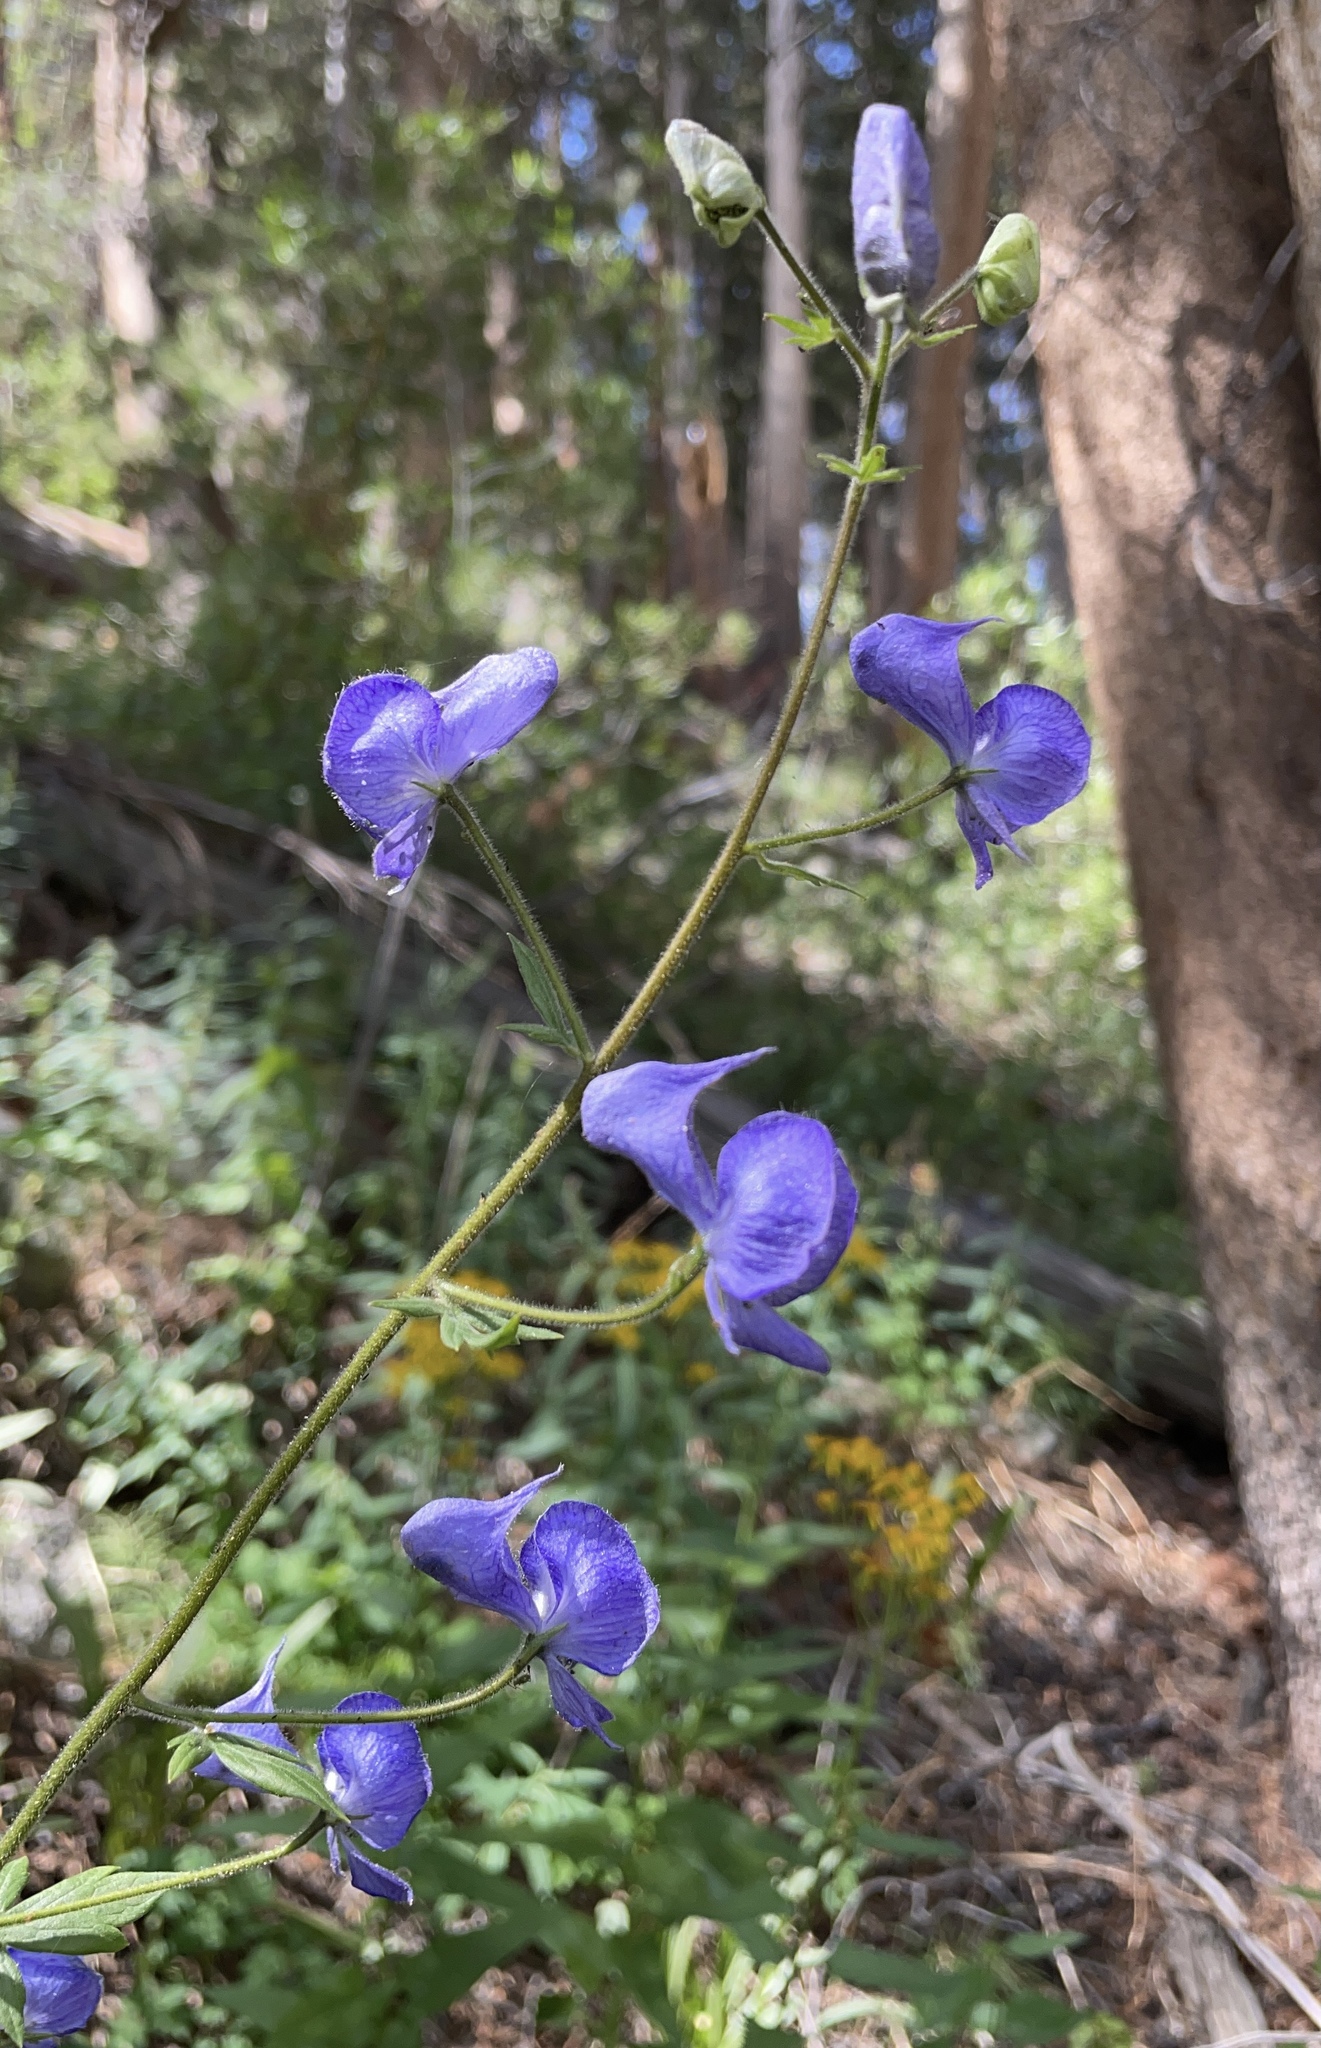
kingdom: Plantae
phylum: Tracheophyta
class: Magnoliopsida
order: Ranunculales
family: Ranunculaceae
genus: Aconitum
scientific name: Aconitum columbianum
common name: Columbia aconite
